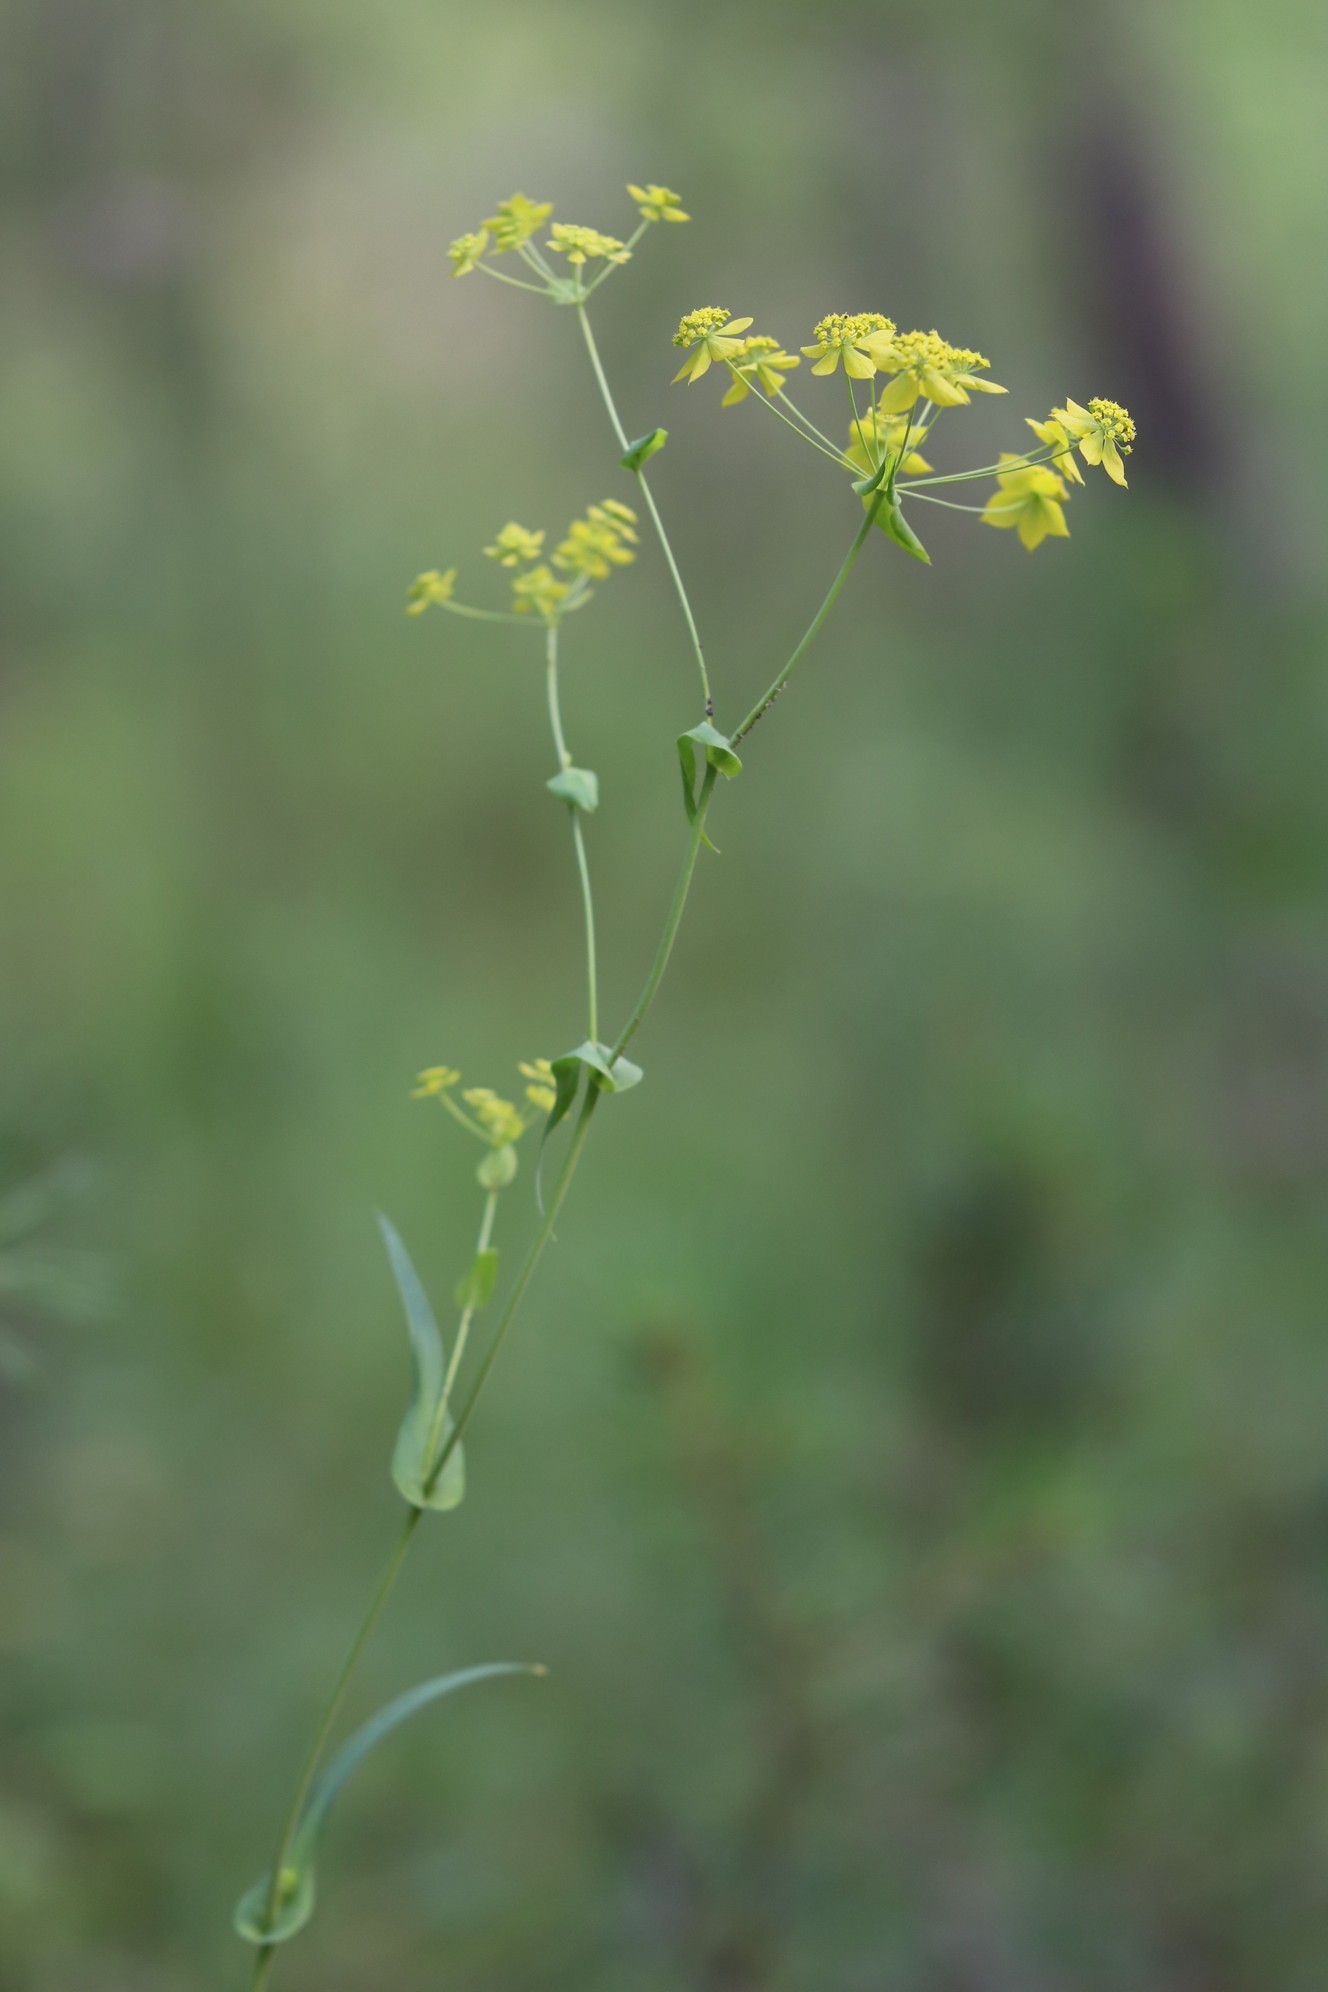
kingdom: Plantae
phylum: Tracheophyta
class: Magnoliopsida
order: Apiales
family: Apiaceae
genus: Bupleurum
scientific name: Bupleurum multinerve
